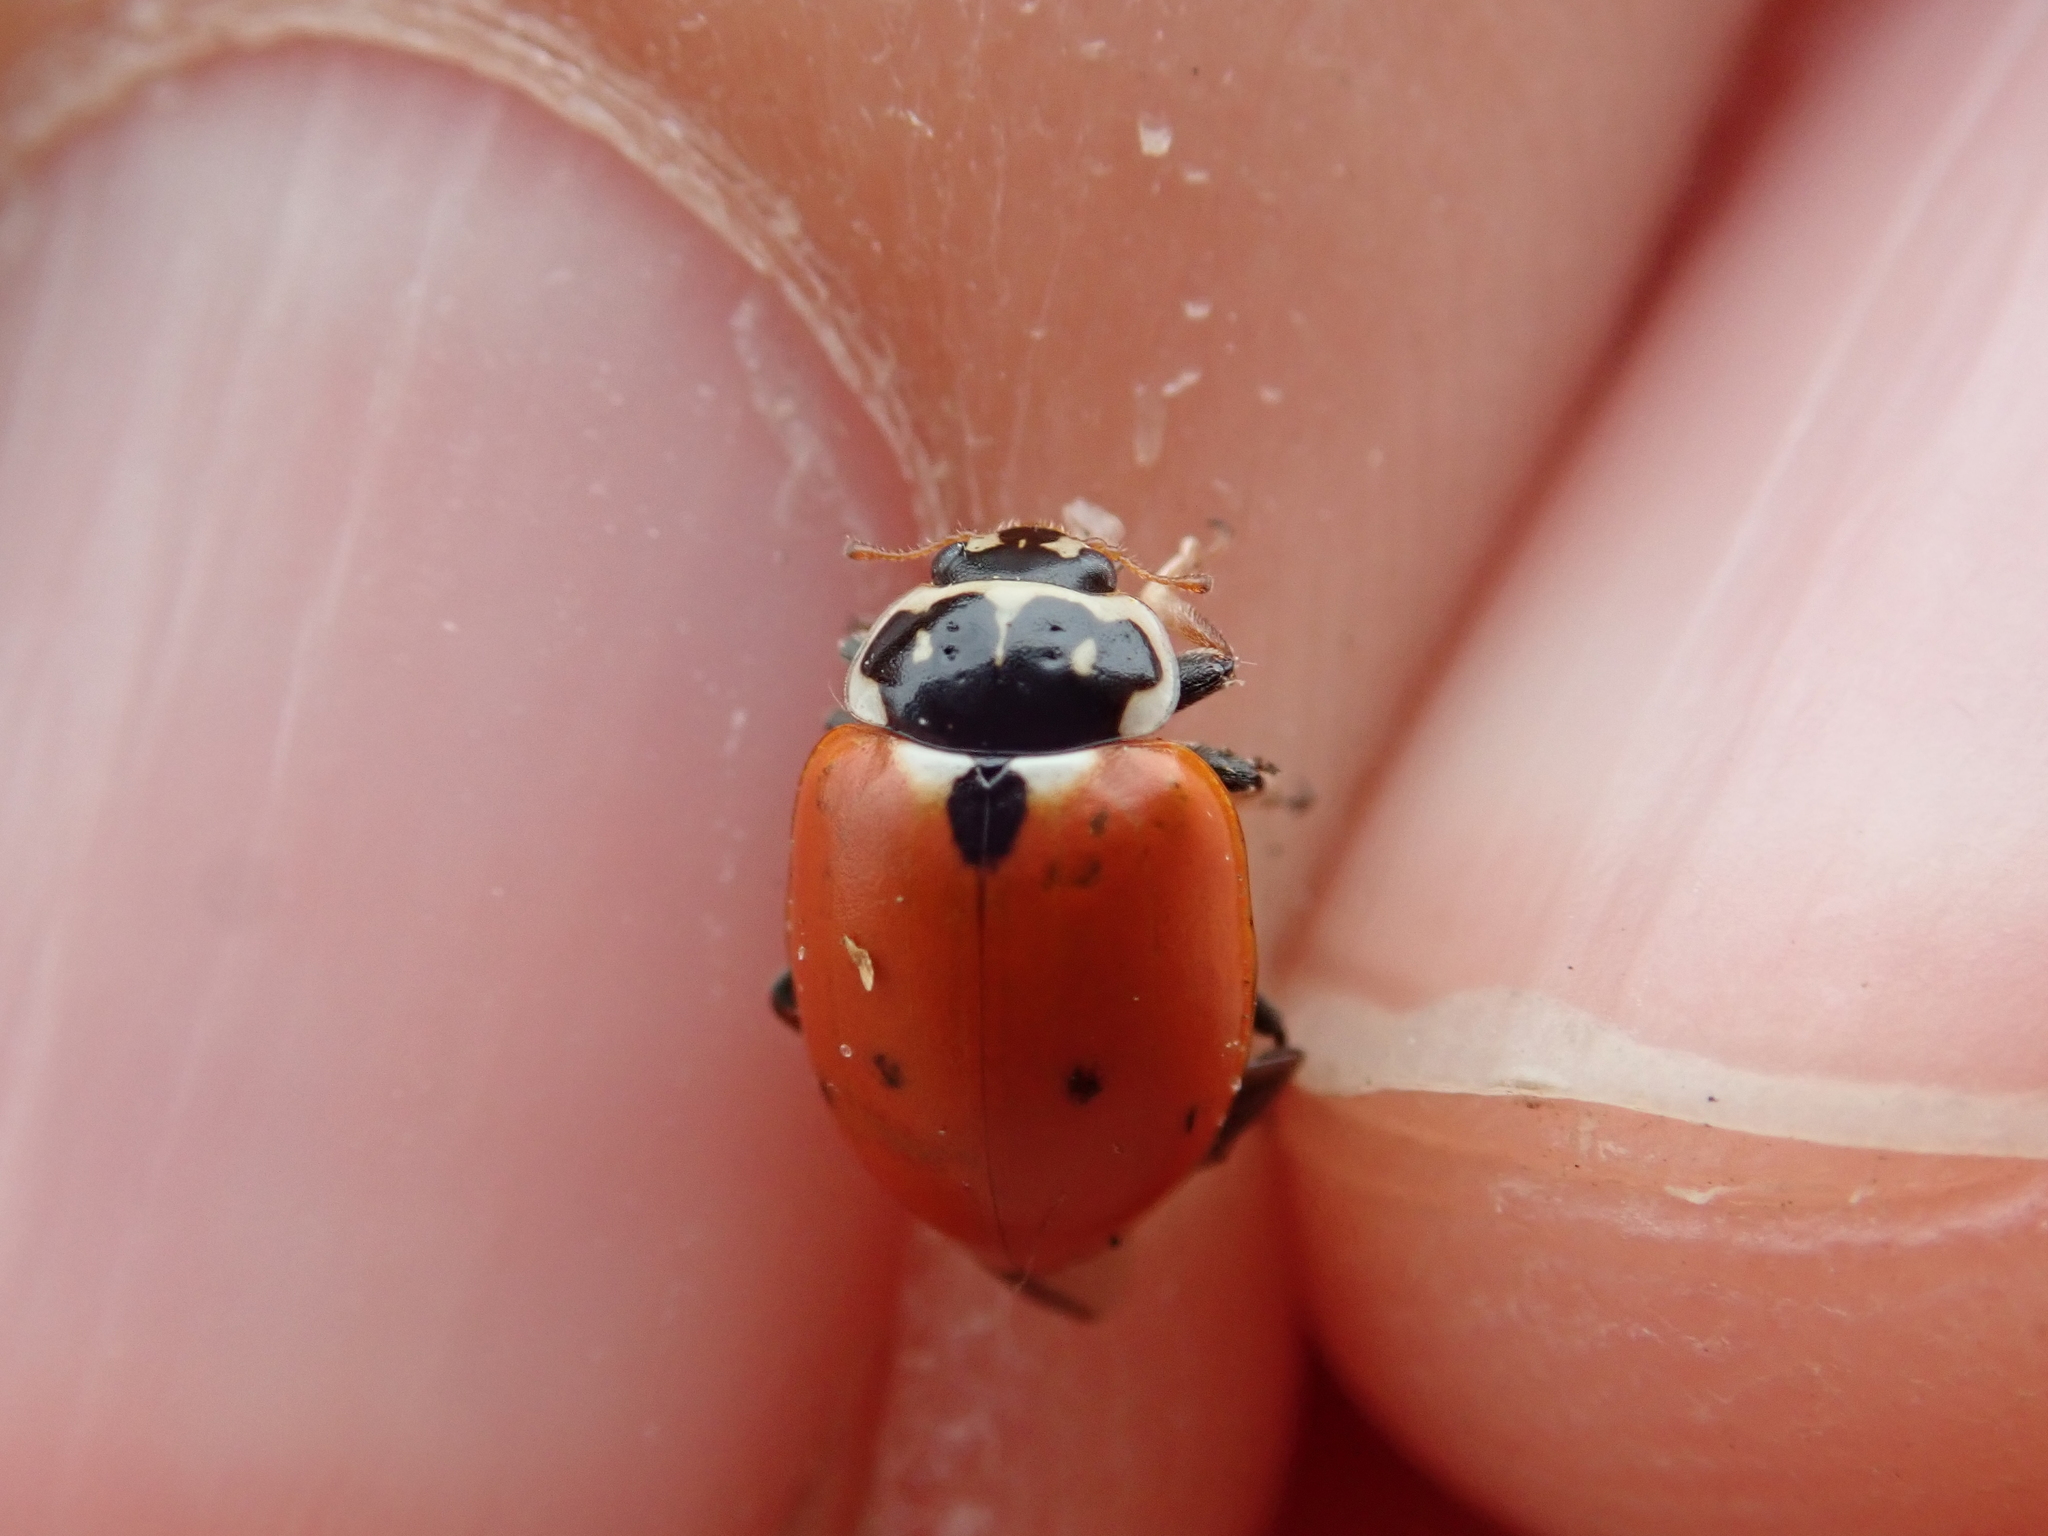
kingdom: Animalia
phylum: Arthropoda
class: Insecta
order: Coleoptera
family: Coccinellidae
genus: Hippodamia
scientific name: Hippodamia variegata
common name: Ladybird beetle
